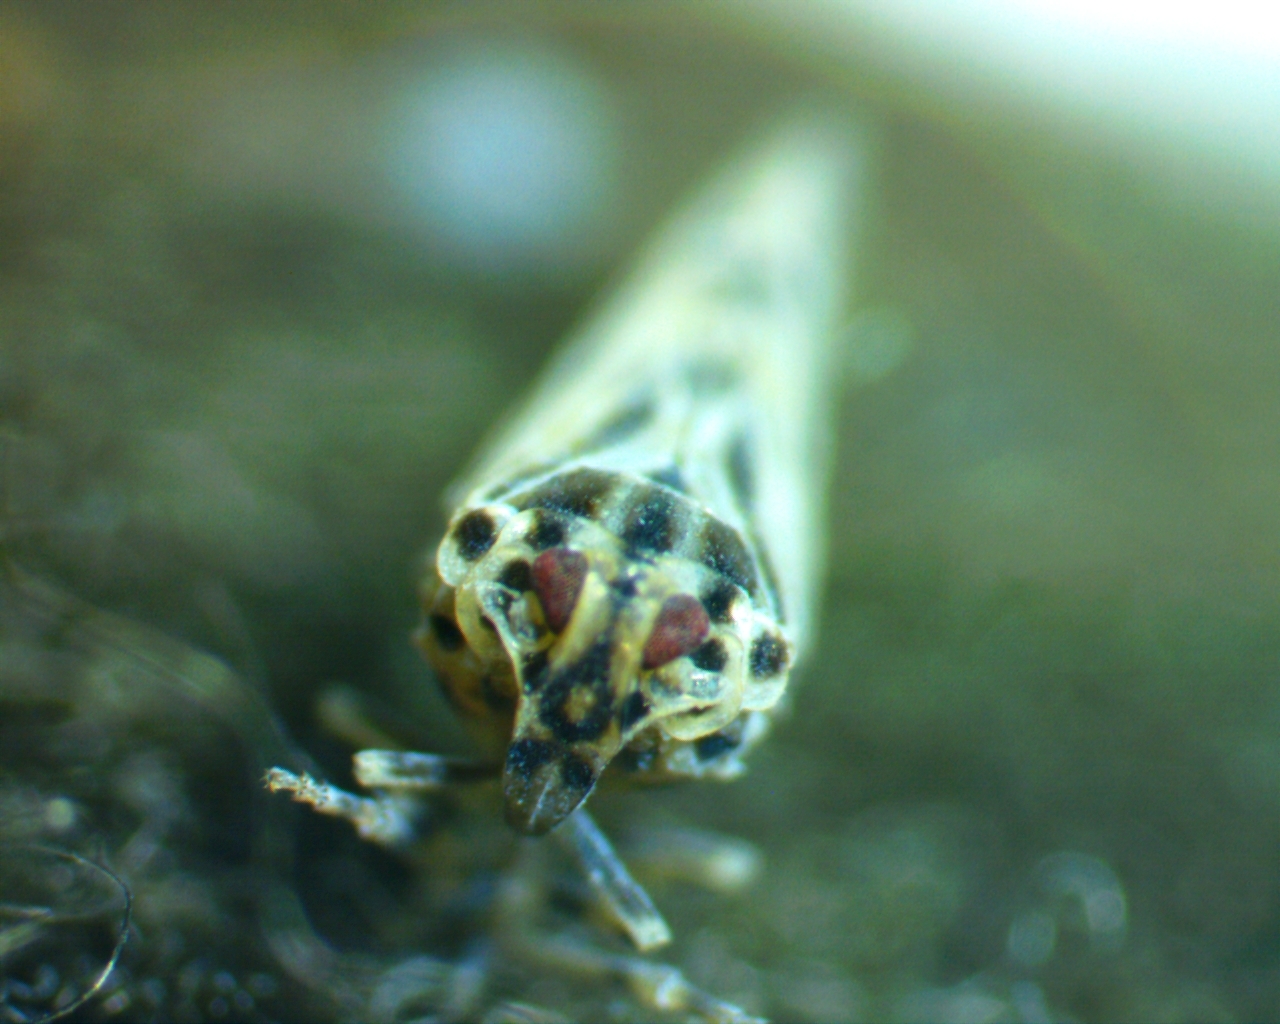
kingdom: Animalia
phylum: Arthropoda
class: Insecta
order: Hemiptera
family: Derbidae
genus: Cedusa
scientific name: Cedusa maculata
